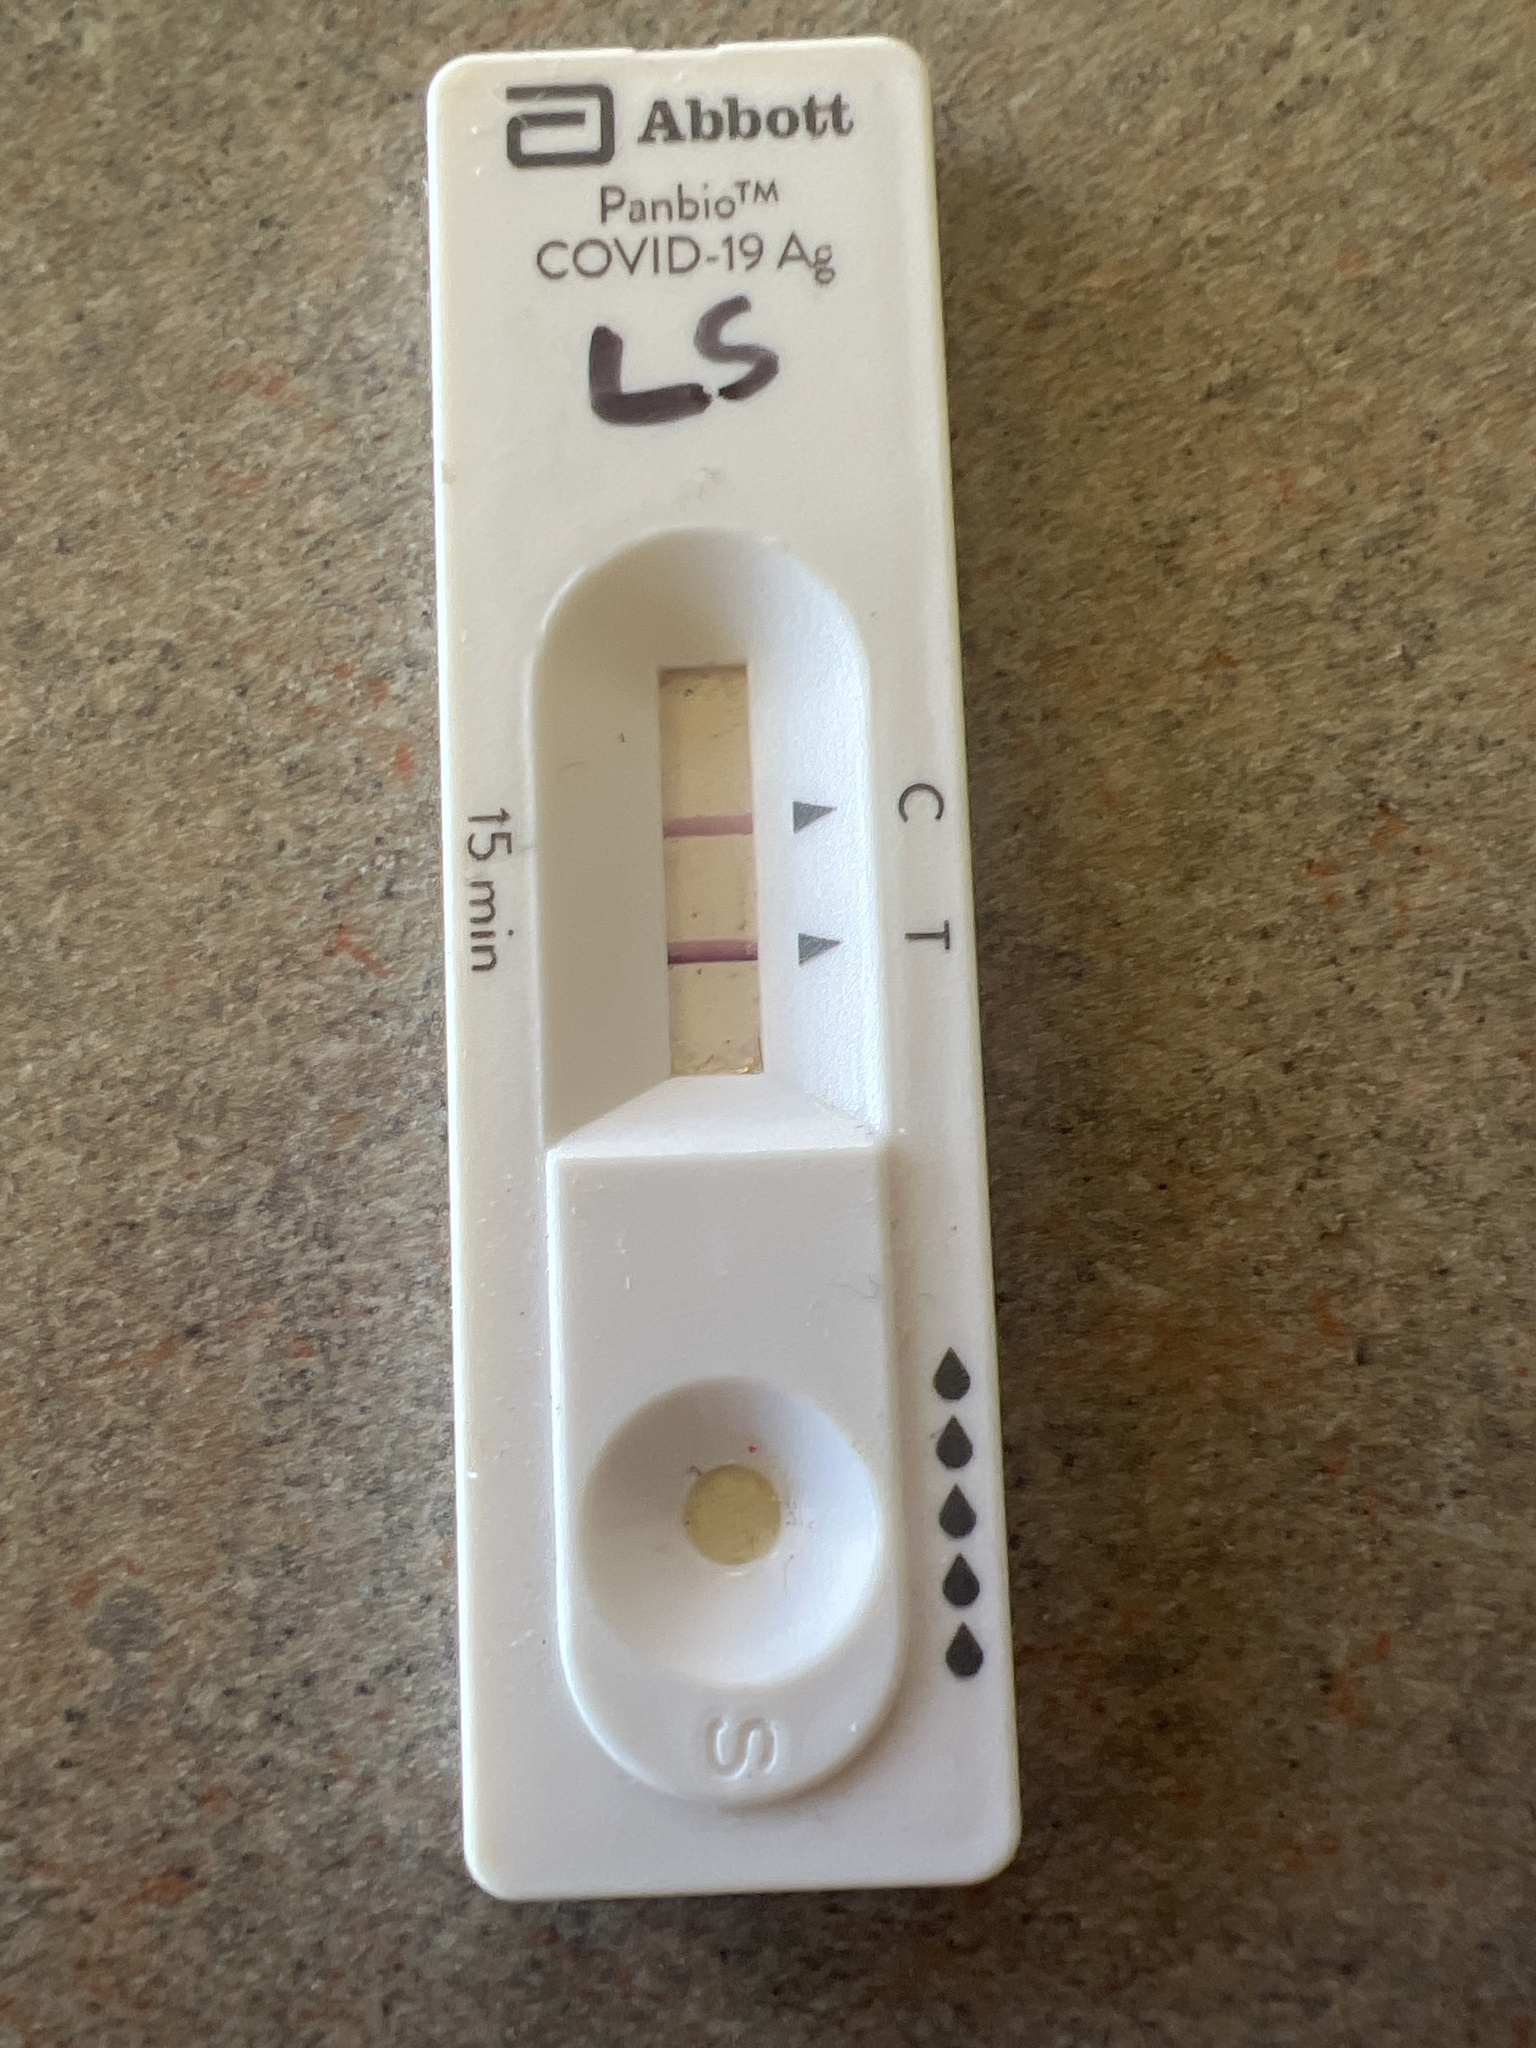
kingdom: Viruses
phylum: Pisuviricota
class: Pisoniviricetes
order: Nidovirales
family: Coronaviridae
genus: Betacoronavirus
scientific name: Betacoronavirus
